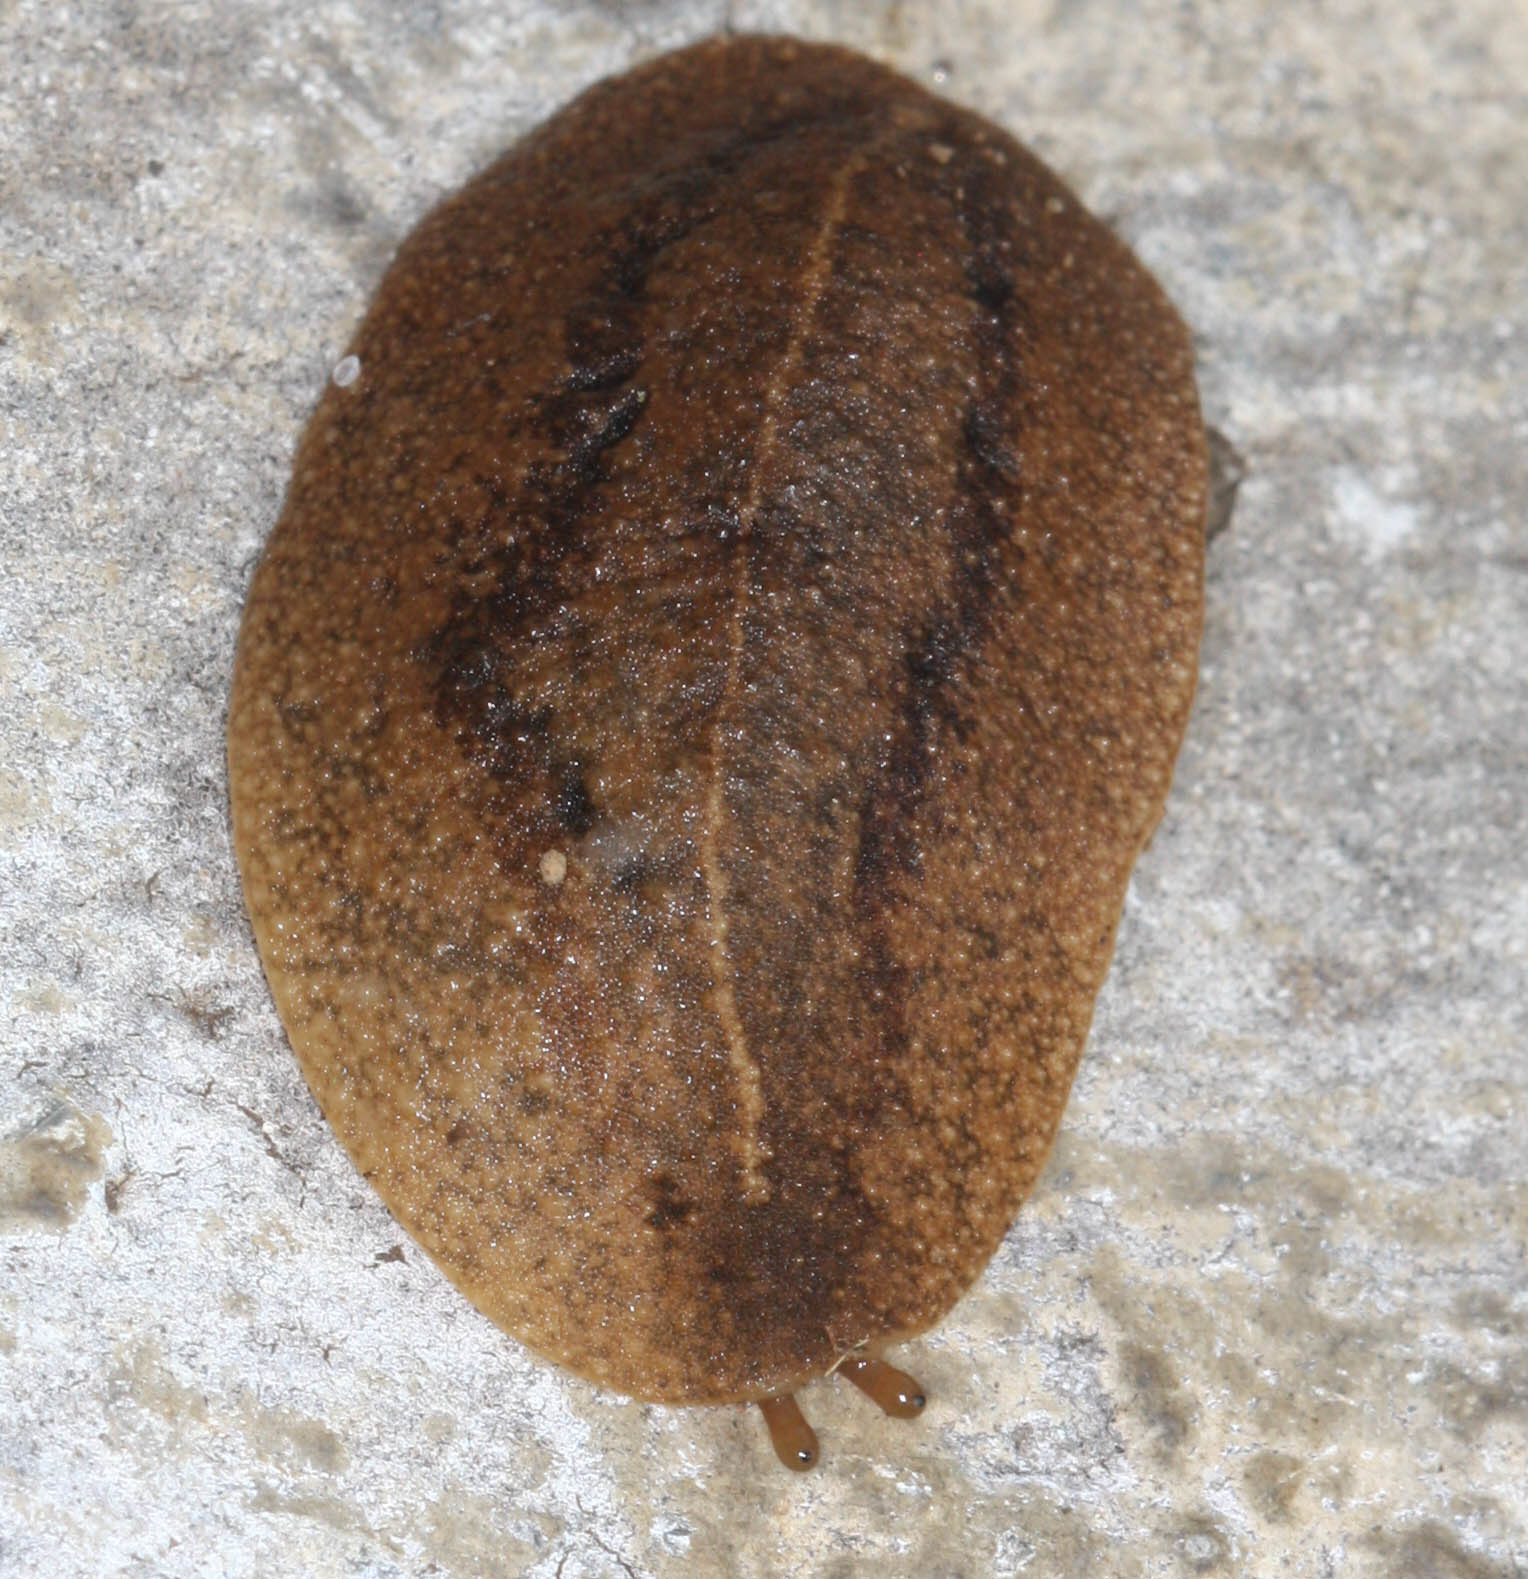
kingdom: Animalia
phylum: Mollusca
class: Gastropoda
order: Systellommatophora
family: Veronicellidae
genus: Veronicella
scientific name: Veronicella cubensis
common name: Two striped slug
